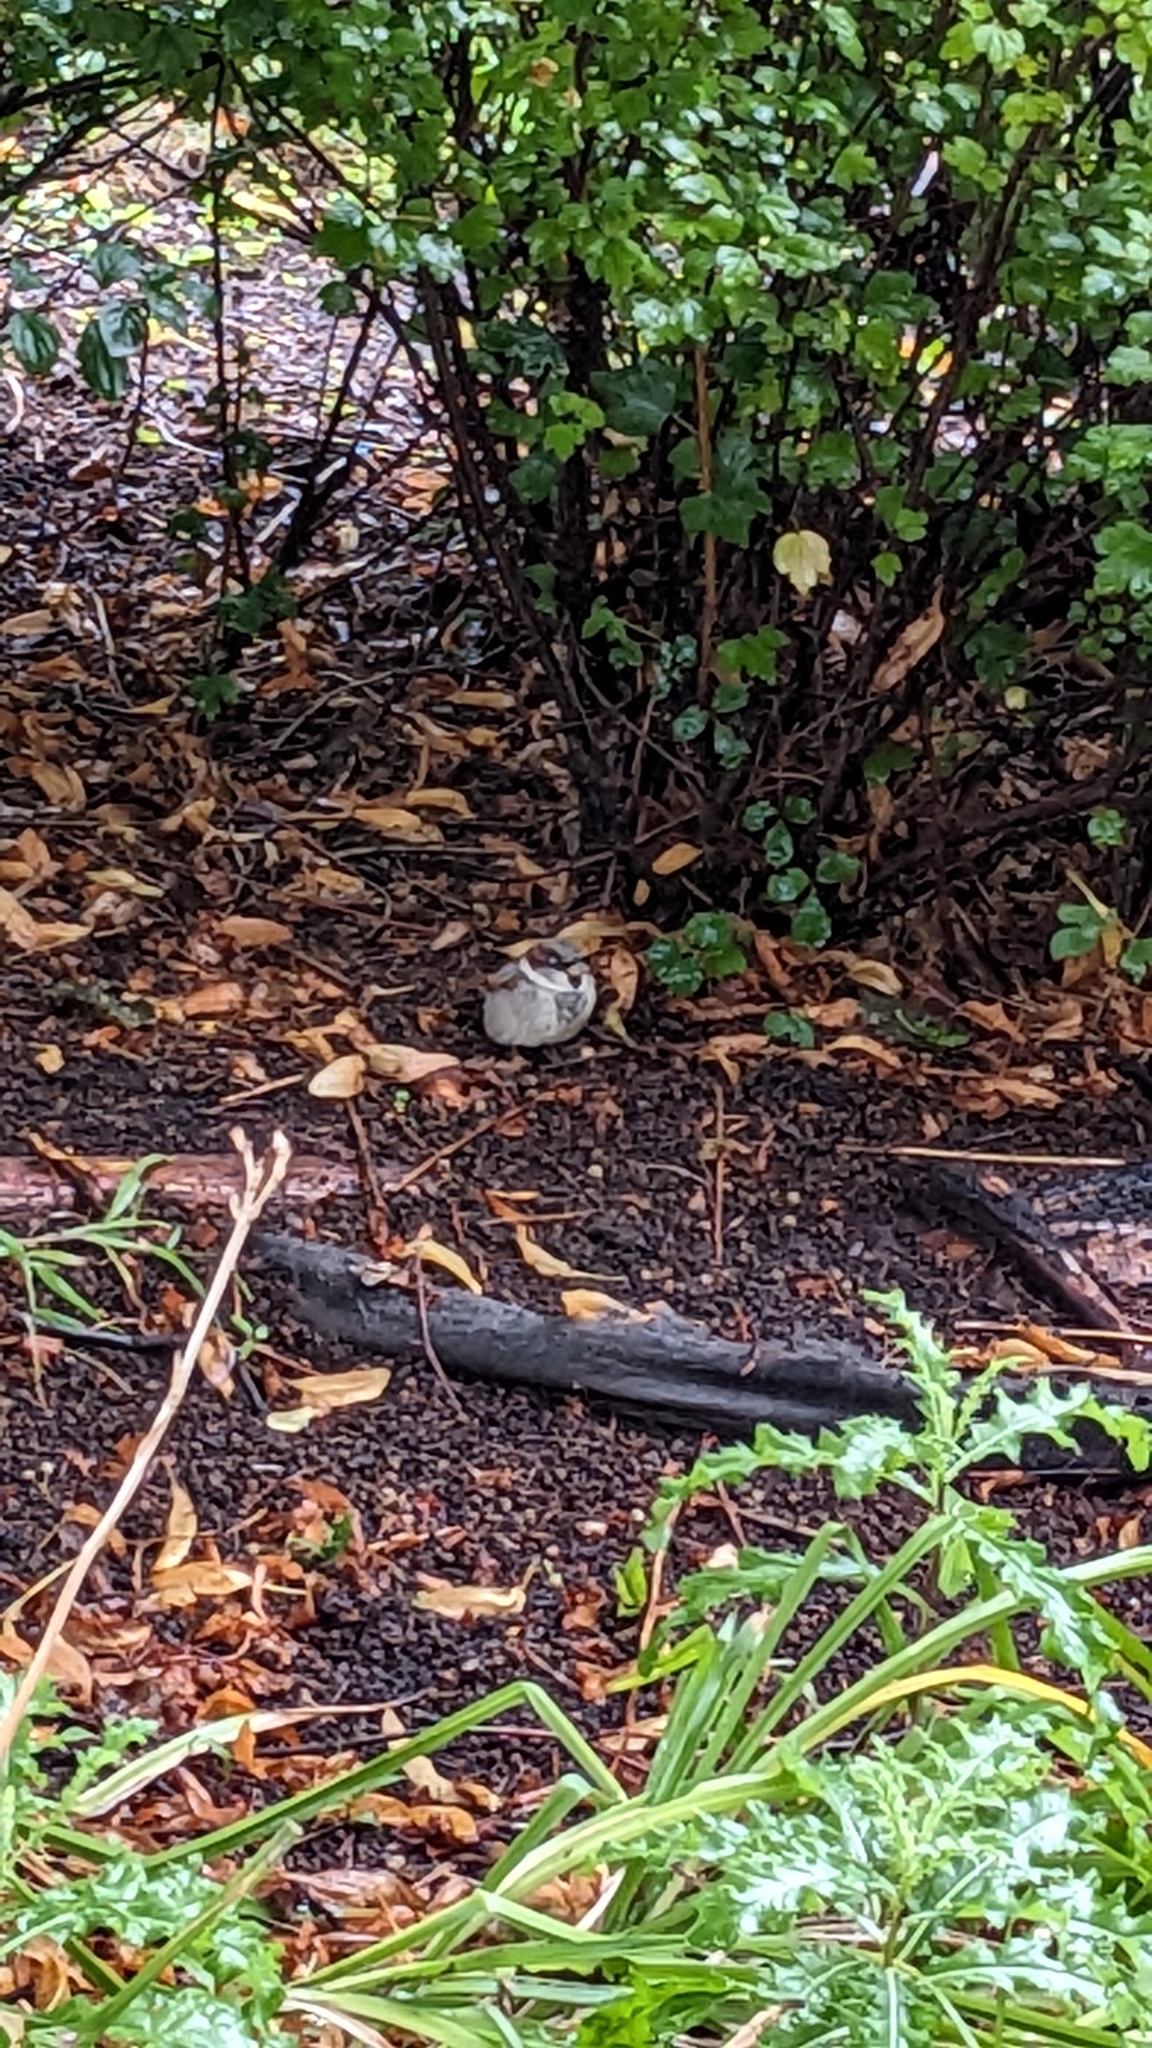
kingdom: Animalia
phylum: Chordata
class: Aves
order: Passeriformes
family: Passeridae
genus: Passer
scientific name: Passer domesticus
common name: House sparrow
